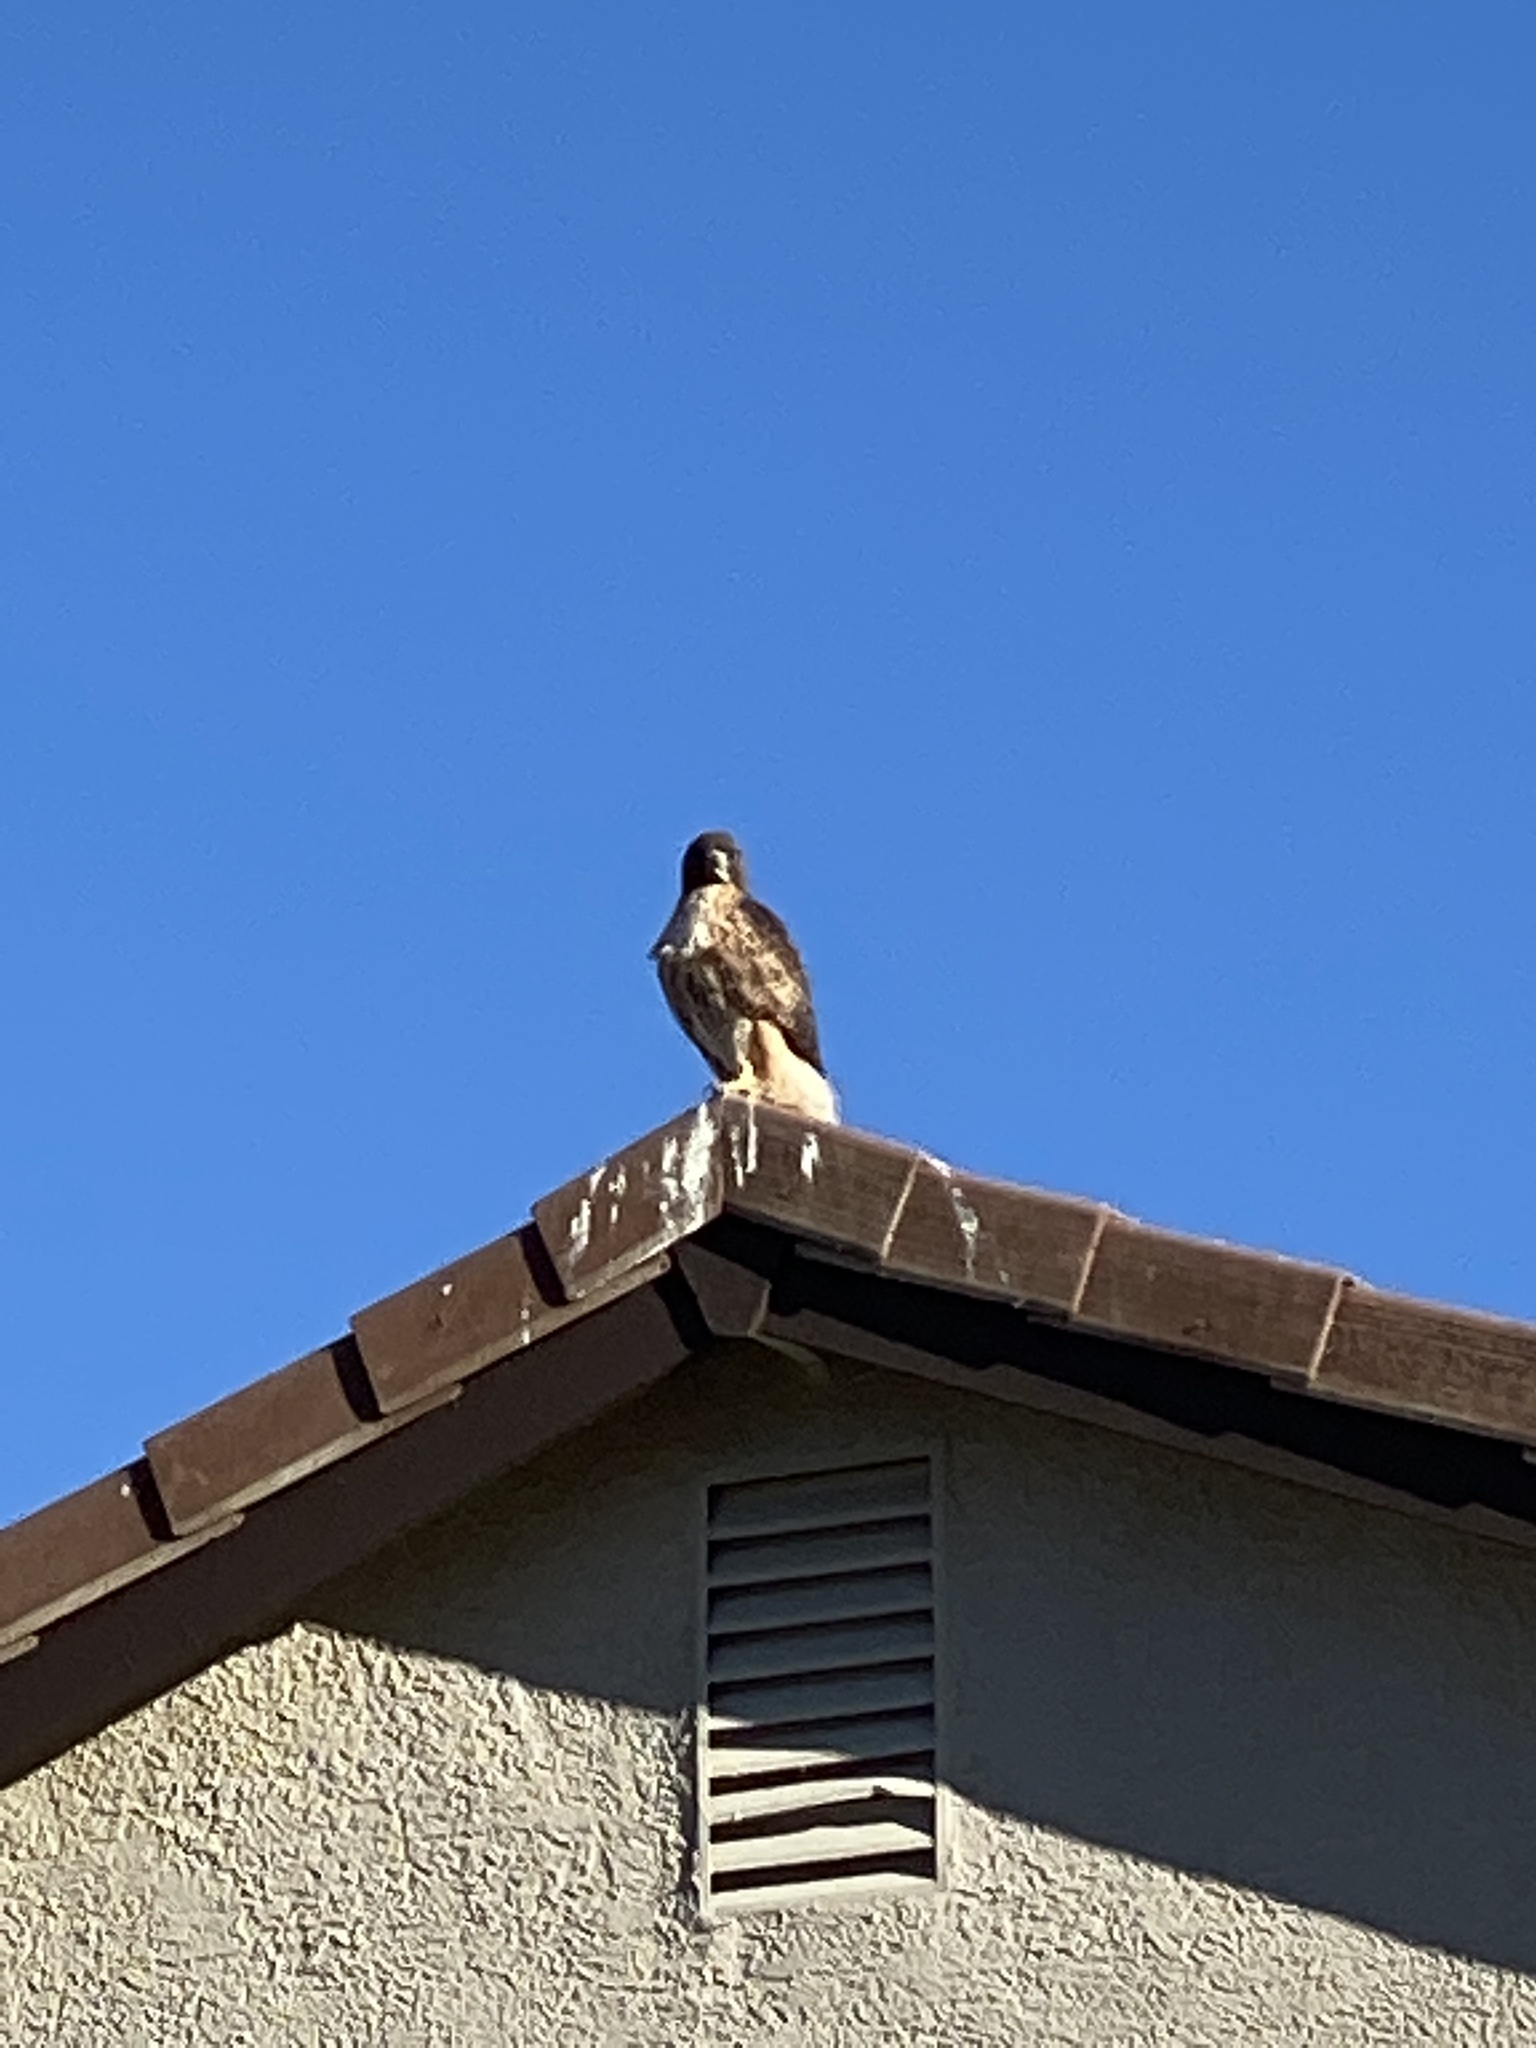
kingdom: Animalia
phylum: Chordata
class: Aves
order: Accipitriformes
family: Accipitridae
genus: Buteo
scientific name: Buteo jamaicensis
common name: Red-tailed hawk
